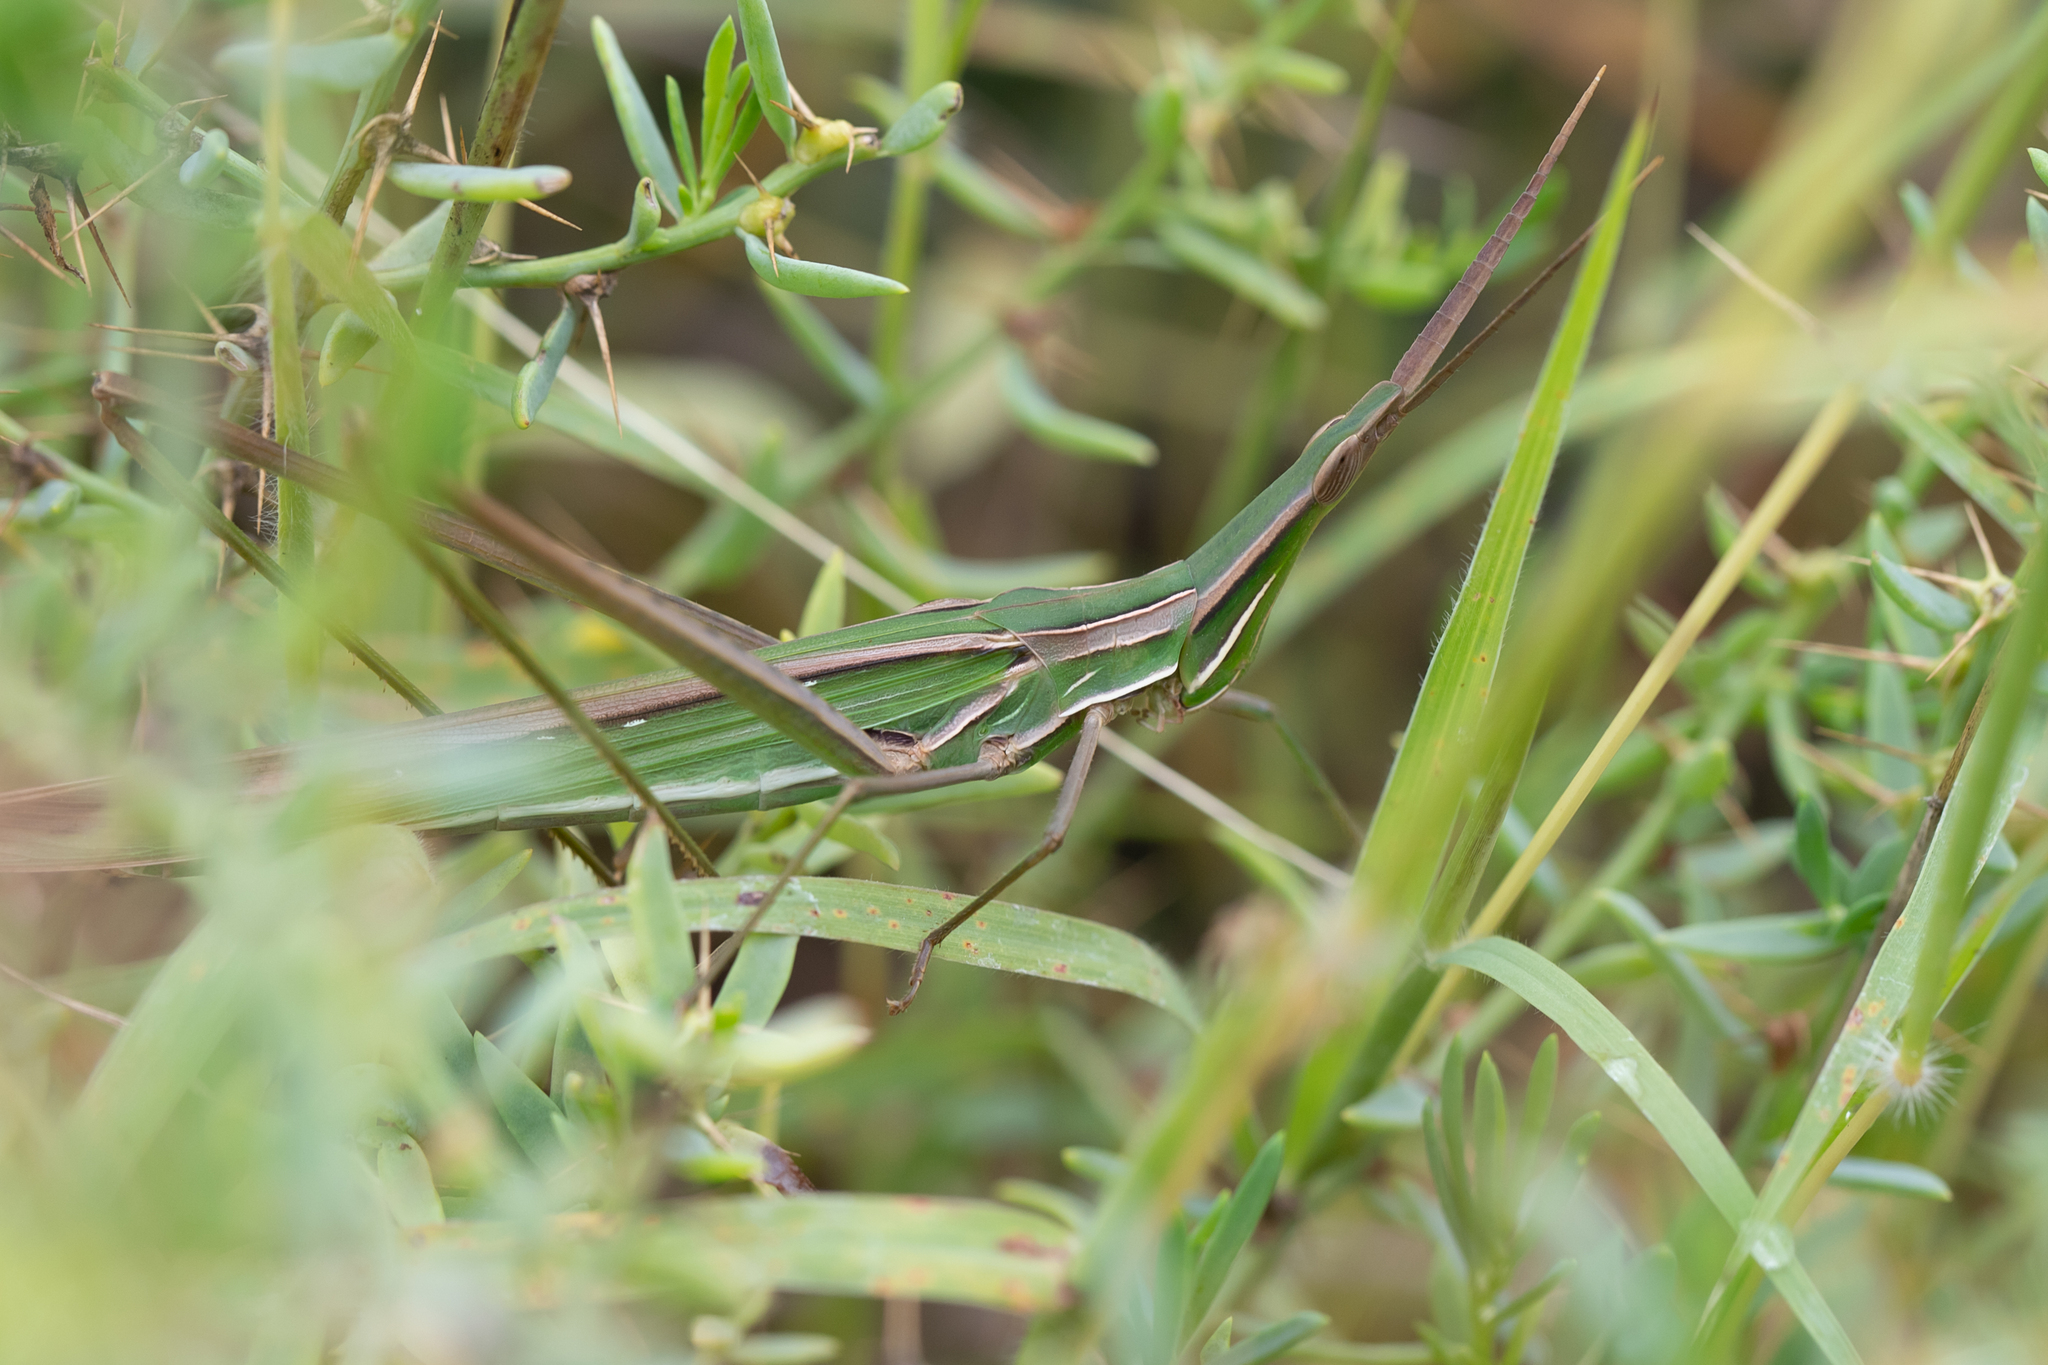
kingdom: Animalia
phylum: Arthropoda
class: Insecta
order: Orthoptera
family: Acrididae
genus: Acrida
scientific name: Acrida conica
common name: Giant green slantface
